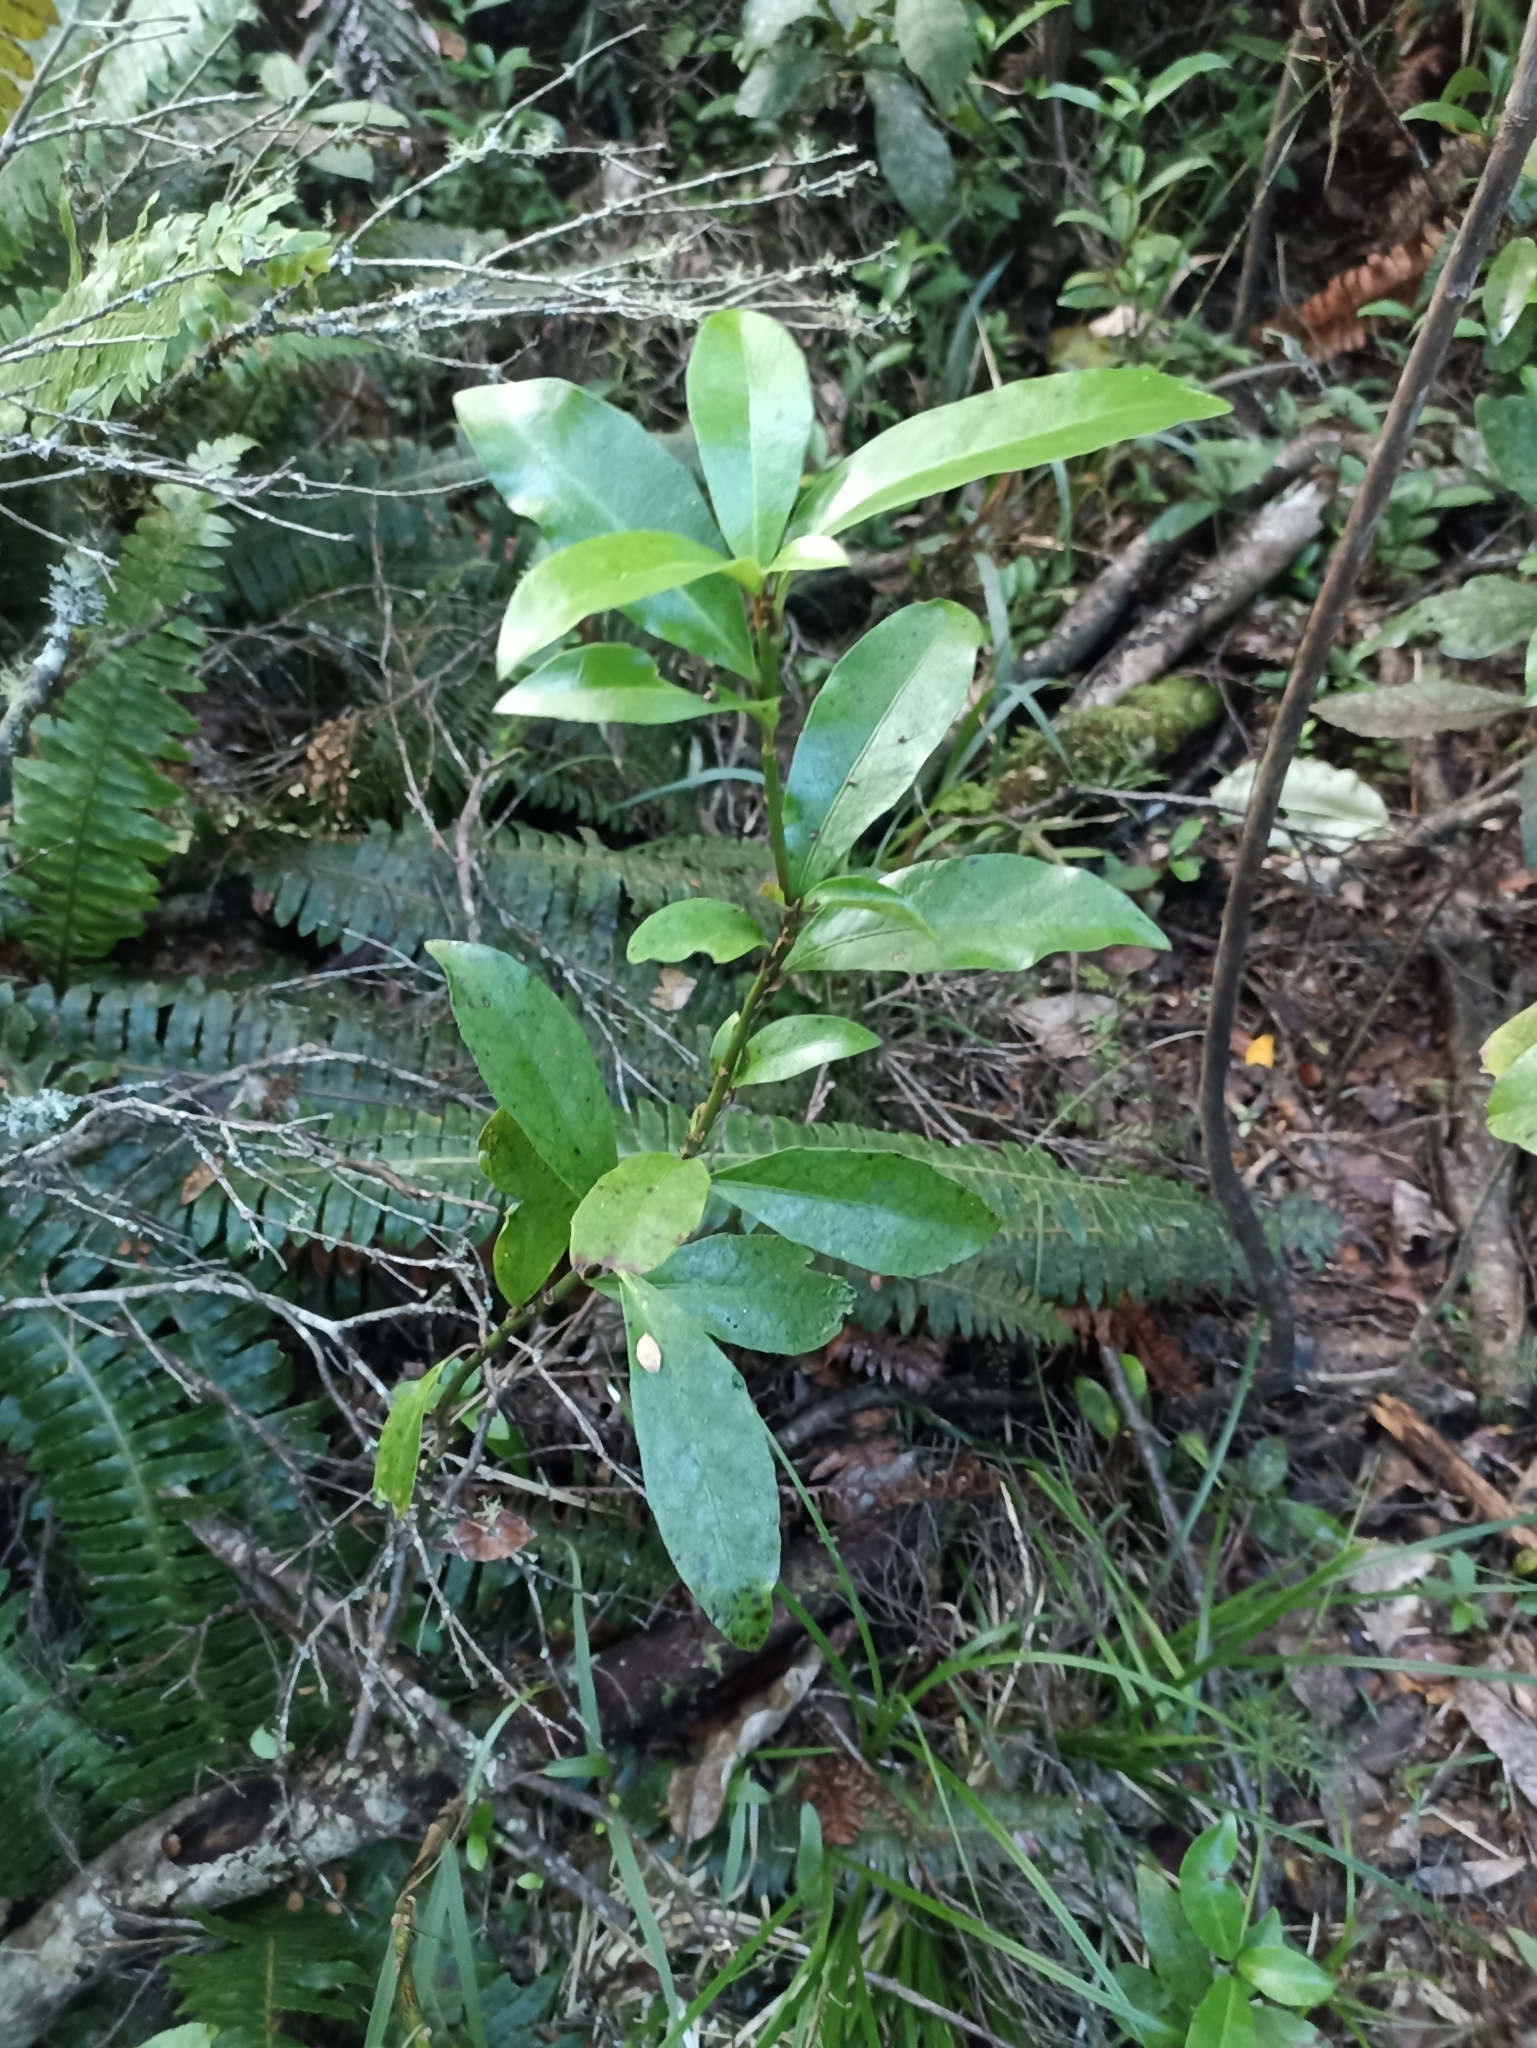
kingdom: Plantae
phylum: Tracheophyta
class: Magnoliopsida
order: Asterales
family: Alseuosmiaceae
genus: Alseuosmia
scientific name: Alseuosmia turneri
